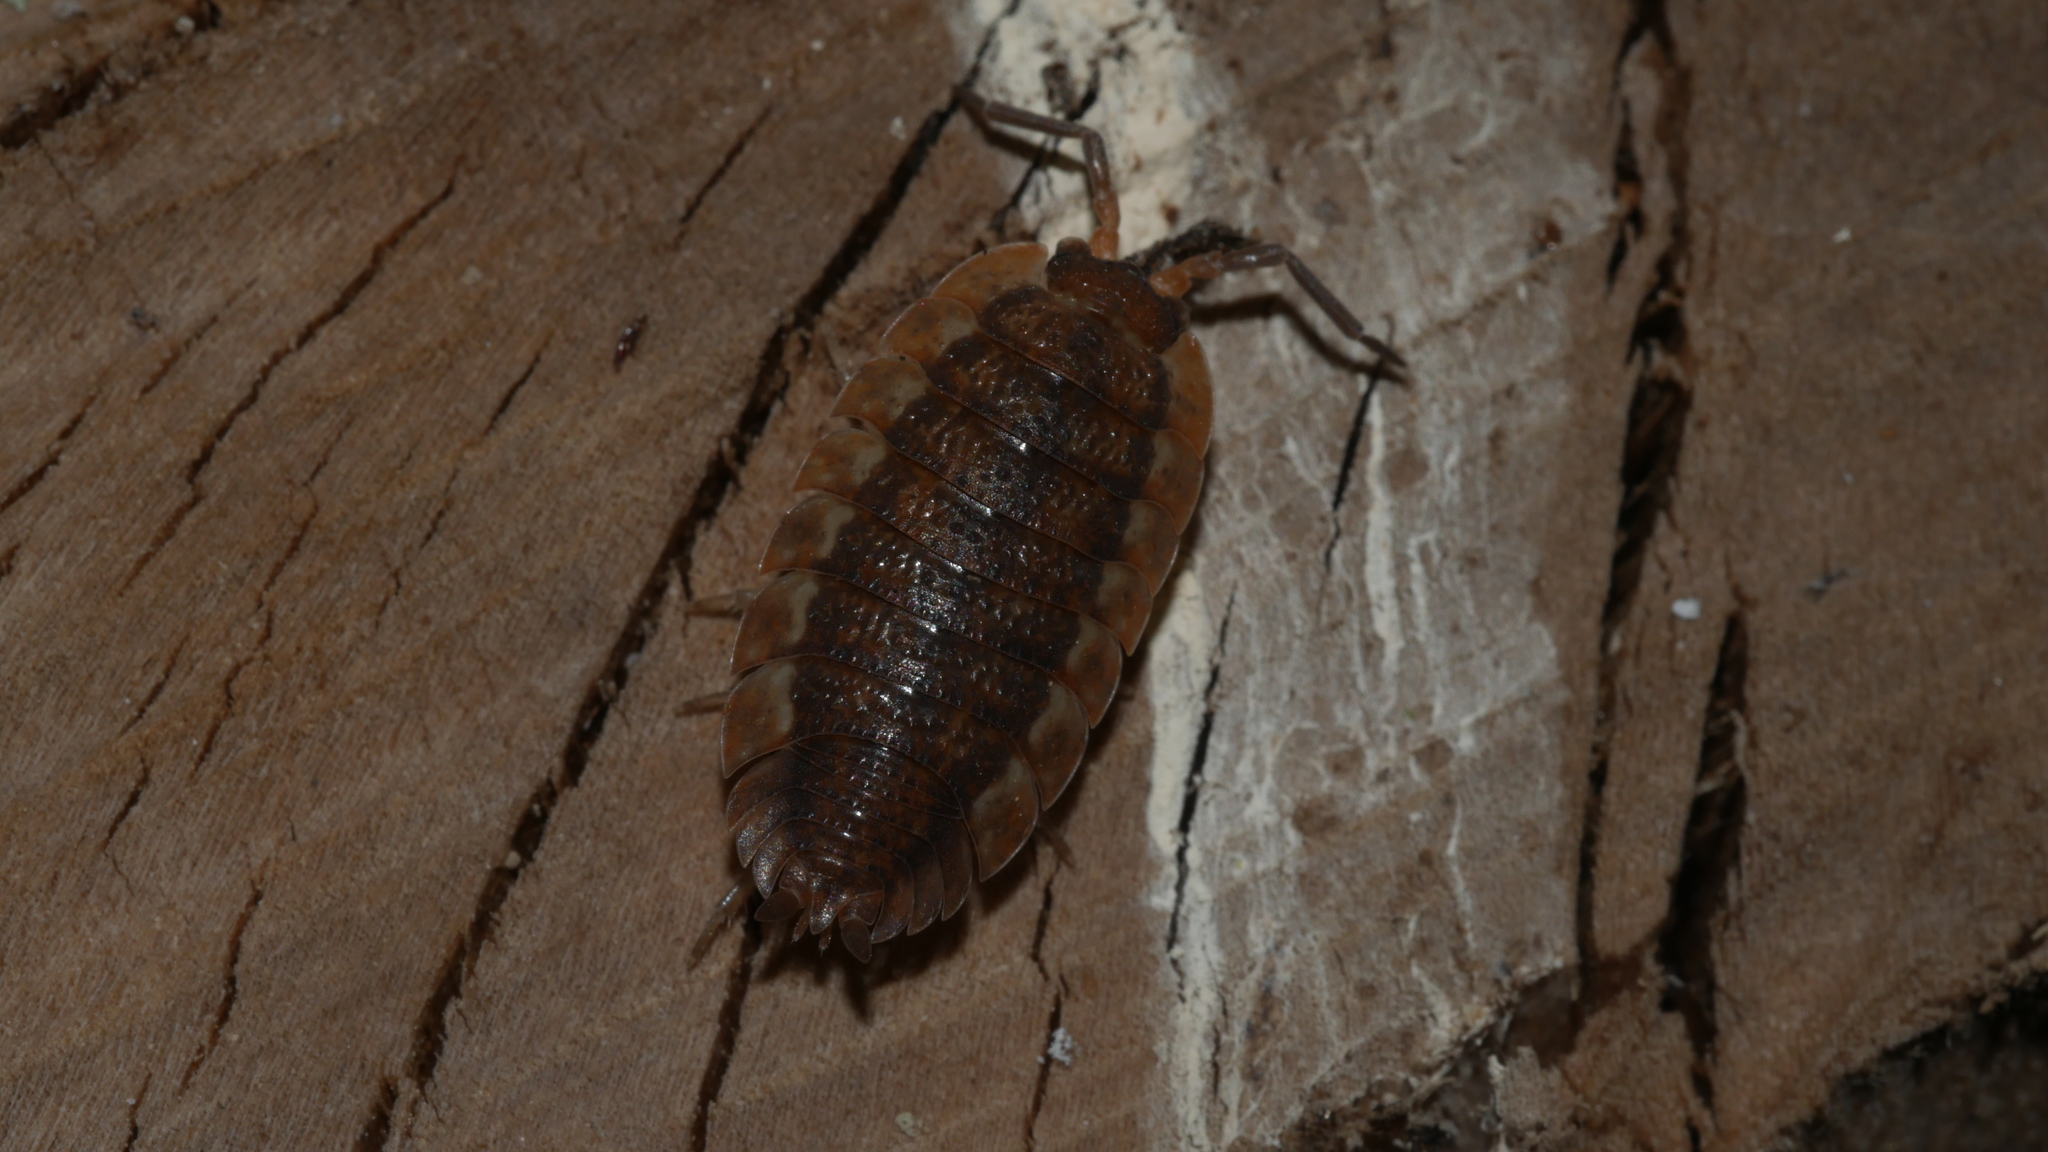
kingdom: Animalia
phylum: Arthropoda
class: Malacostraca
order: Isopoda
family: Porcellionidae
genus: Porcellio
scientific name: Porcellio scaber
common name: Common rough woodlouse
